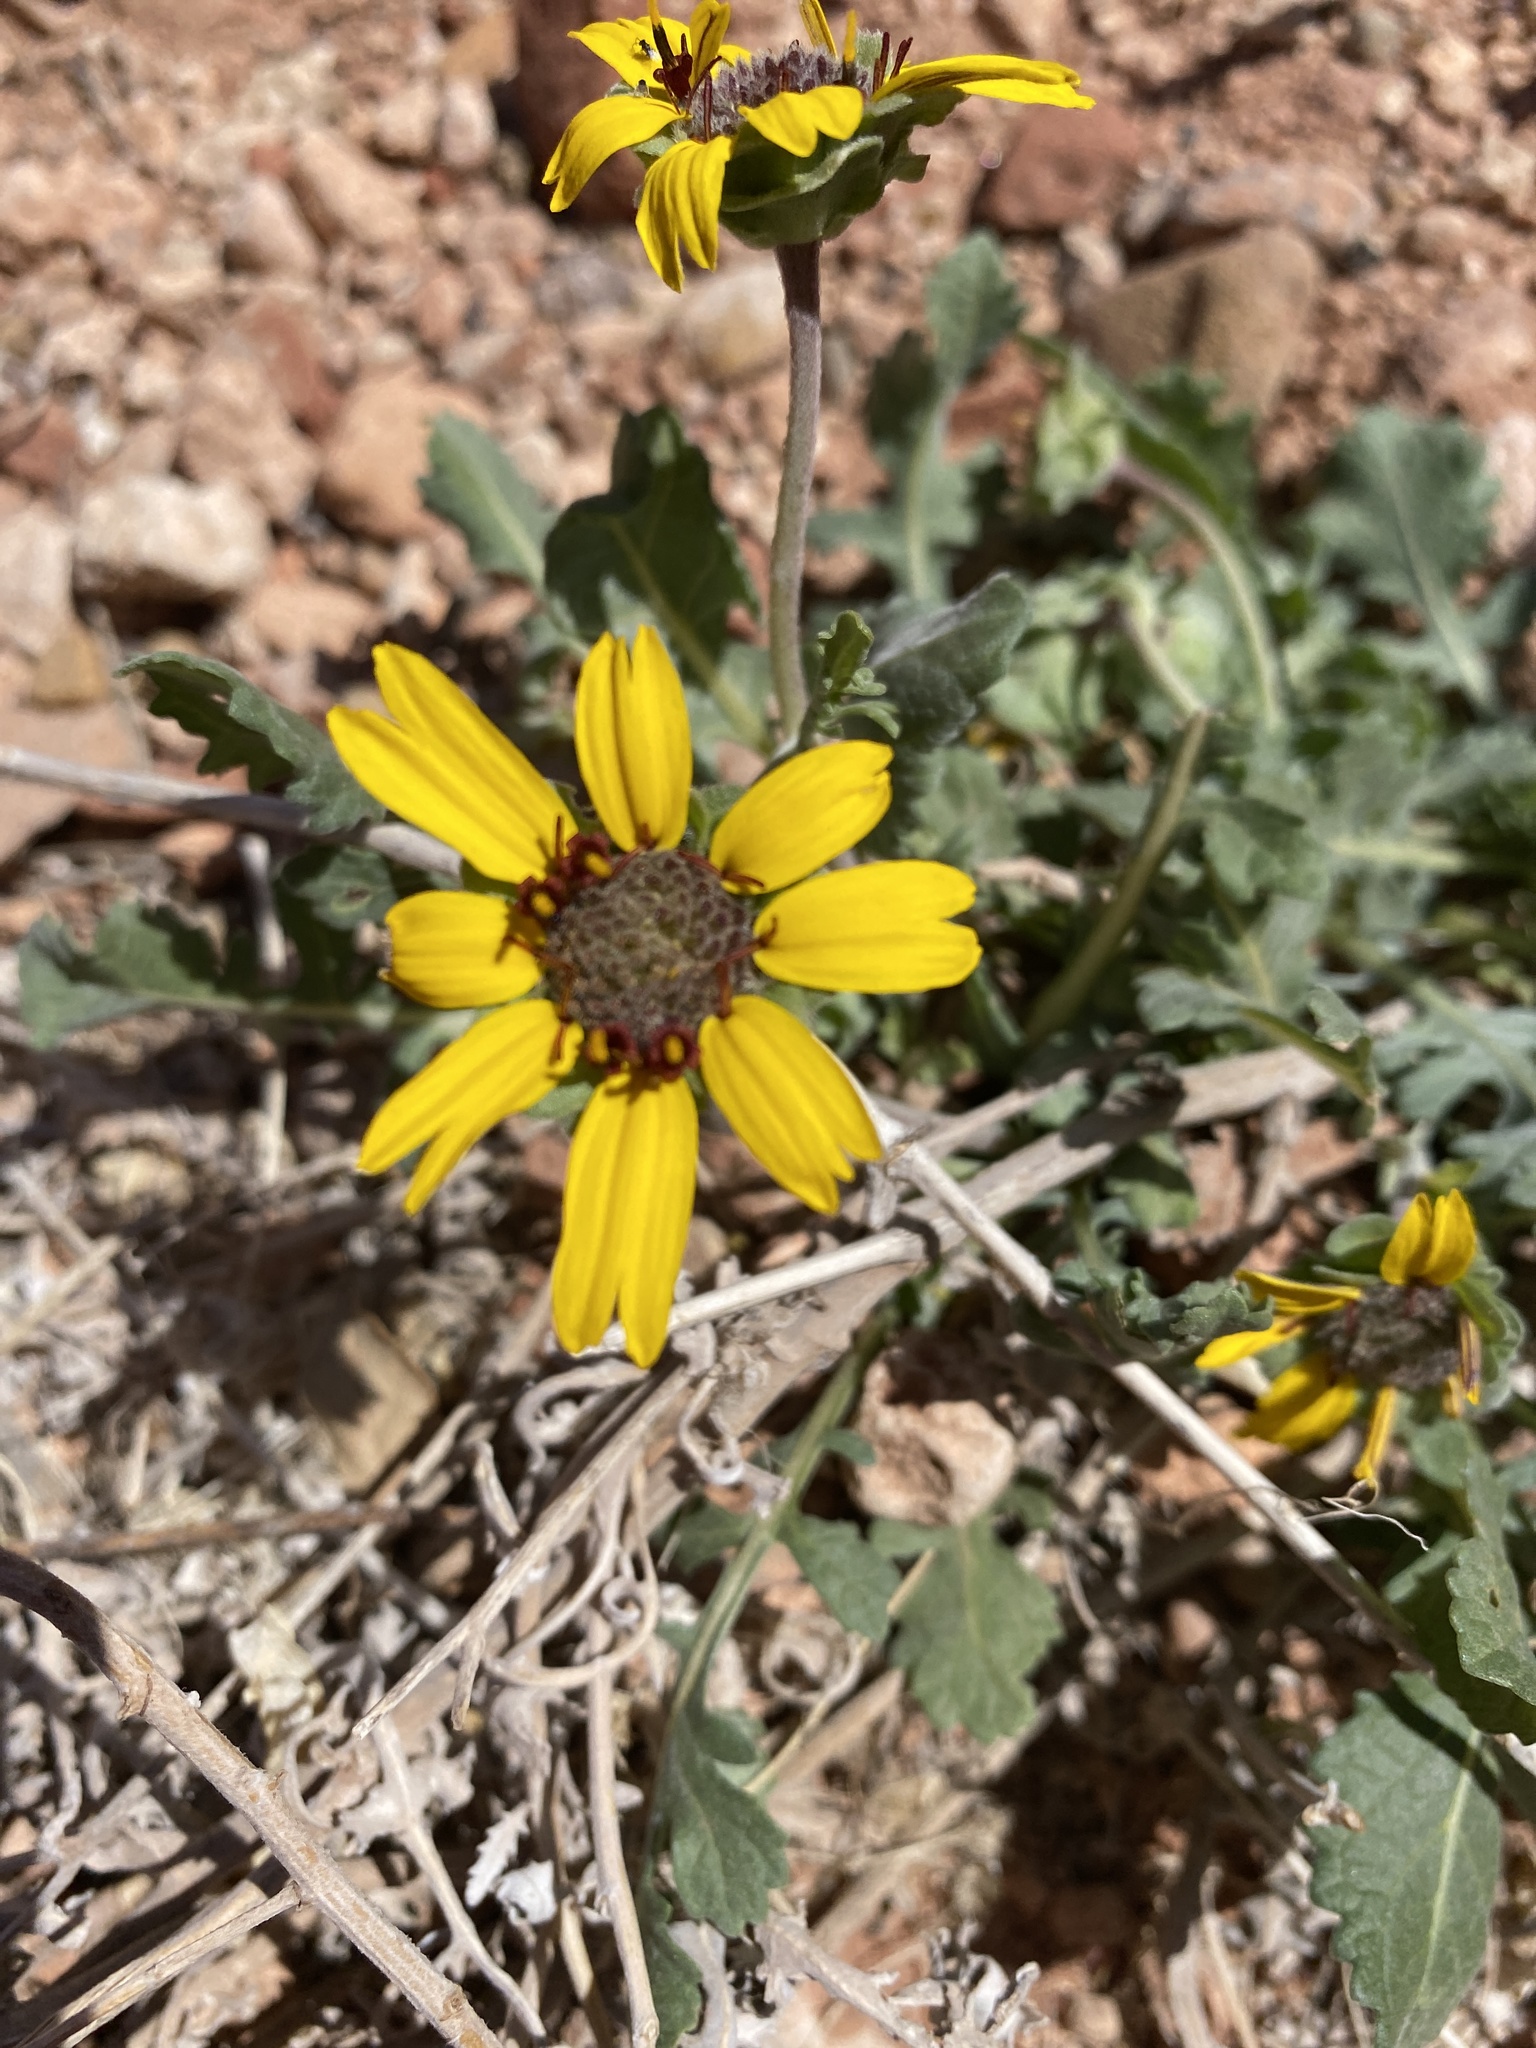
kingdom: Plantae
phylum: Tracheophyta
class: Magnoliopsida
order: Asterales
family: Asteraceae
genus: Berlandiera
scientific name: Berlandiera lyrata
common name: Chocolate-flower
